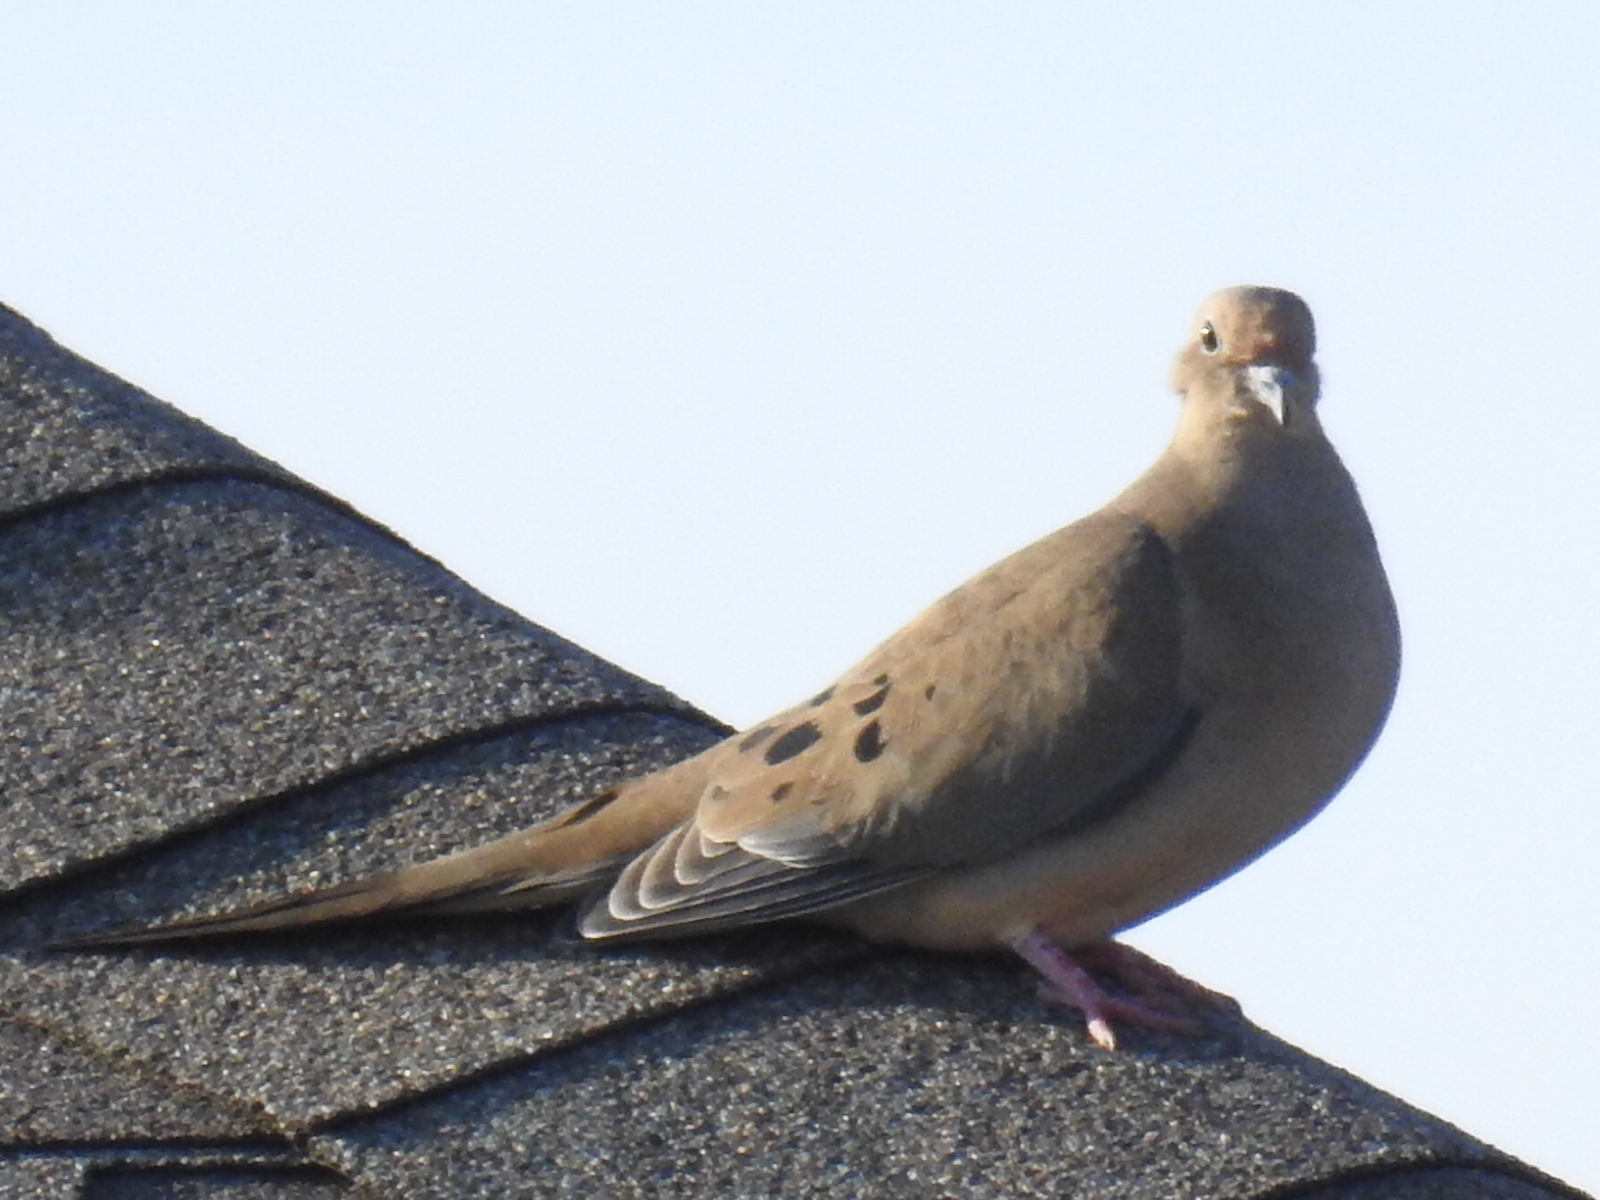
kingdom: Animalia
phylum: Chordata
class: Aves
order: Columbiformes
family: Columbidae
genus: Zenaida
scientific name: Zenaida macroura
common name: Mourning dove
